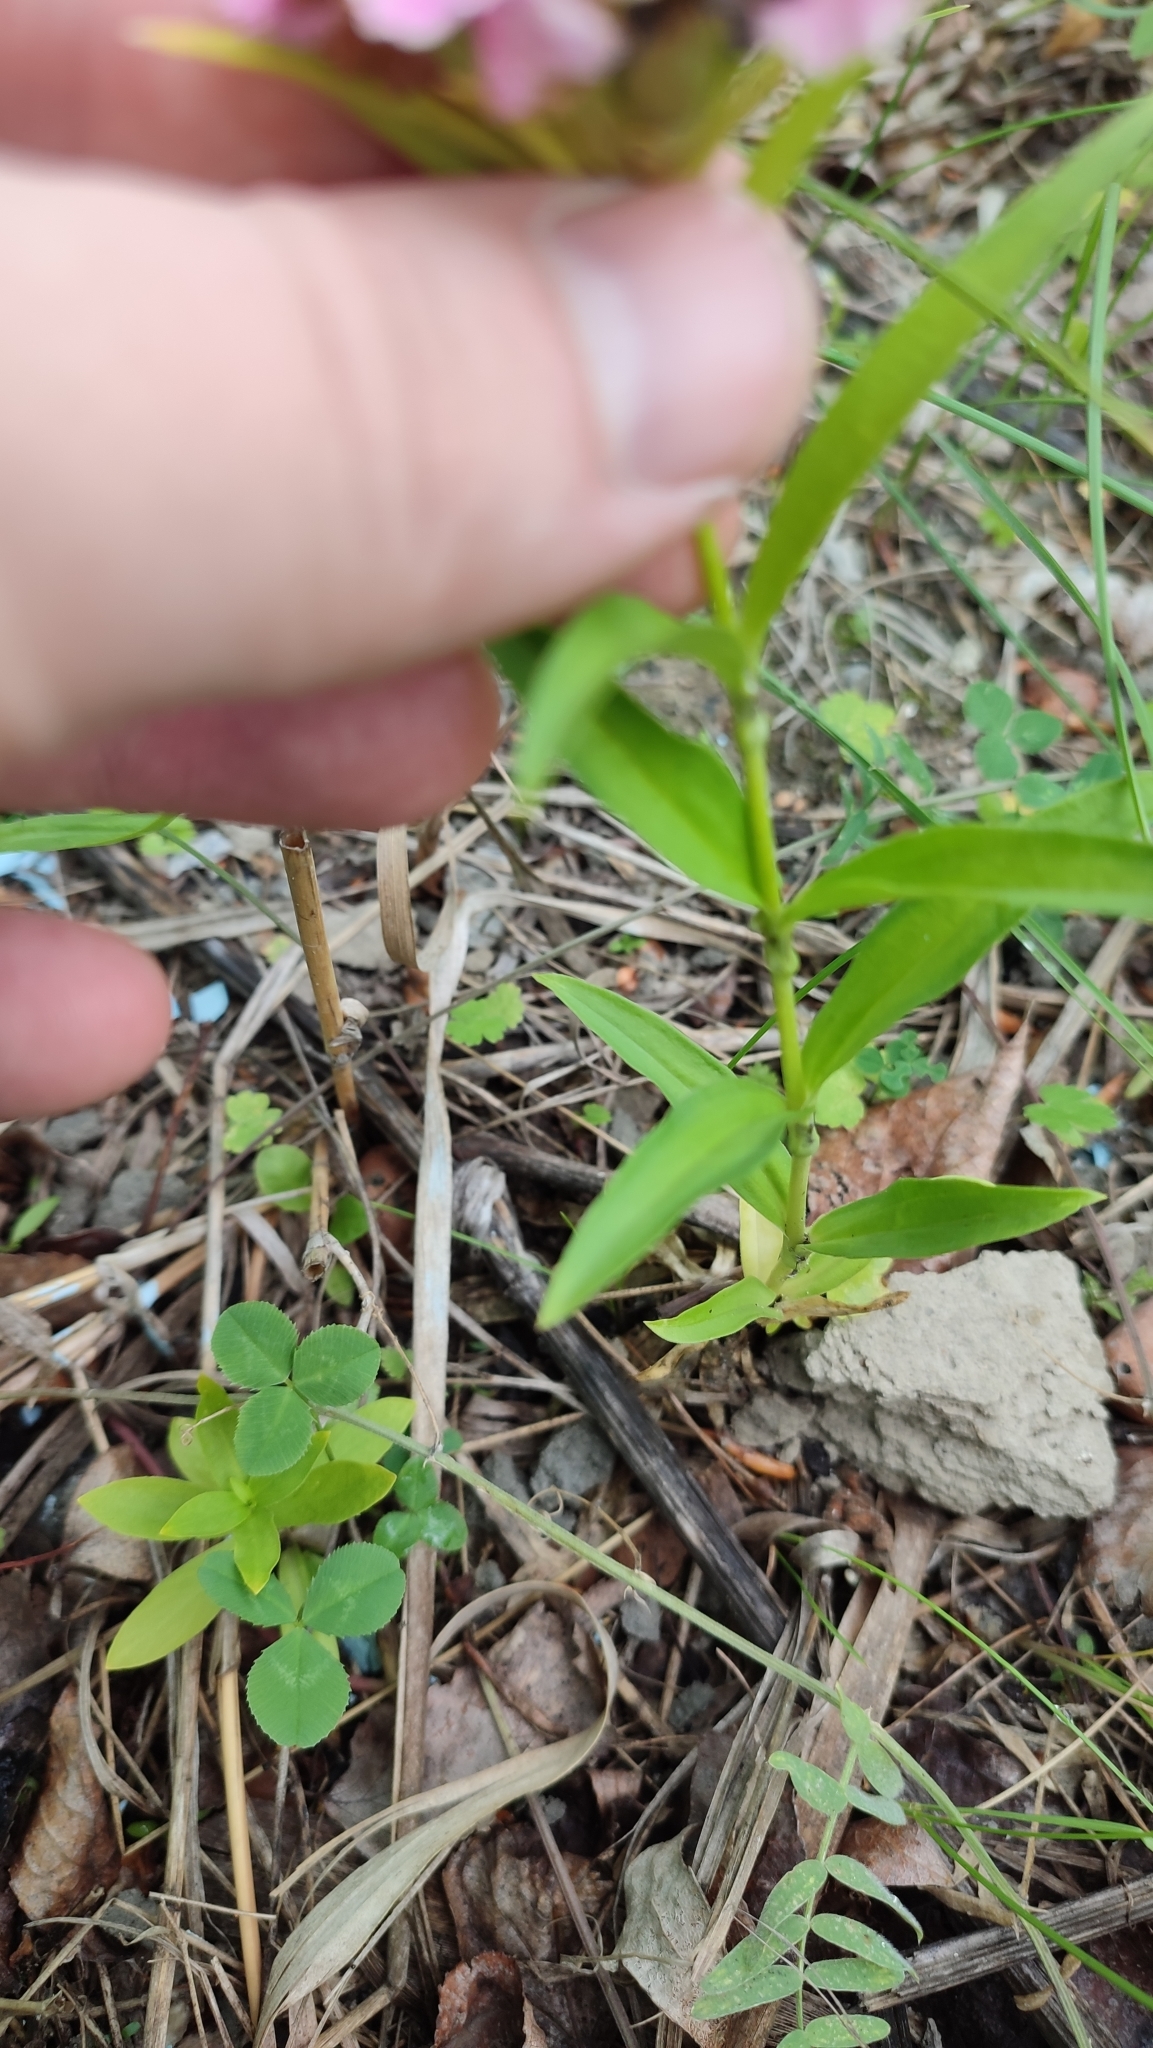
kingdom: Plantae
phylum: Tracheophyta
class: Magnoliopsida
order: Caryophyllales
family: Caryophyllaceae
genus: Dianthus
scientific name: Dianthus barbatus
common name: Sweet-william
